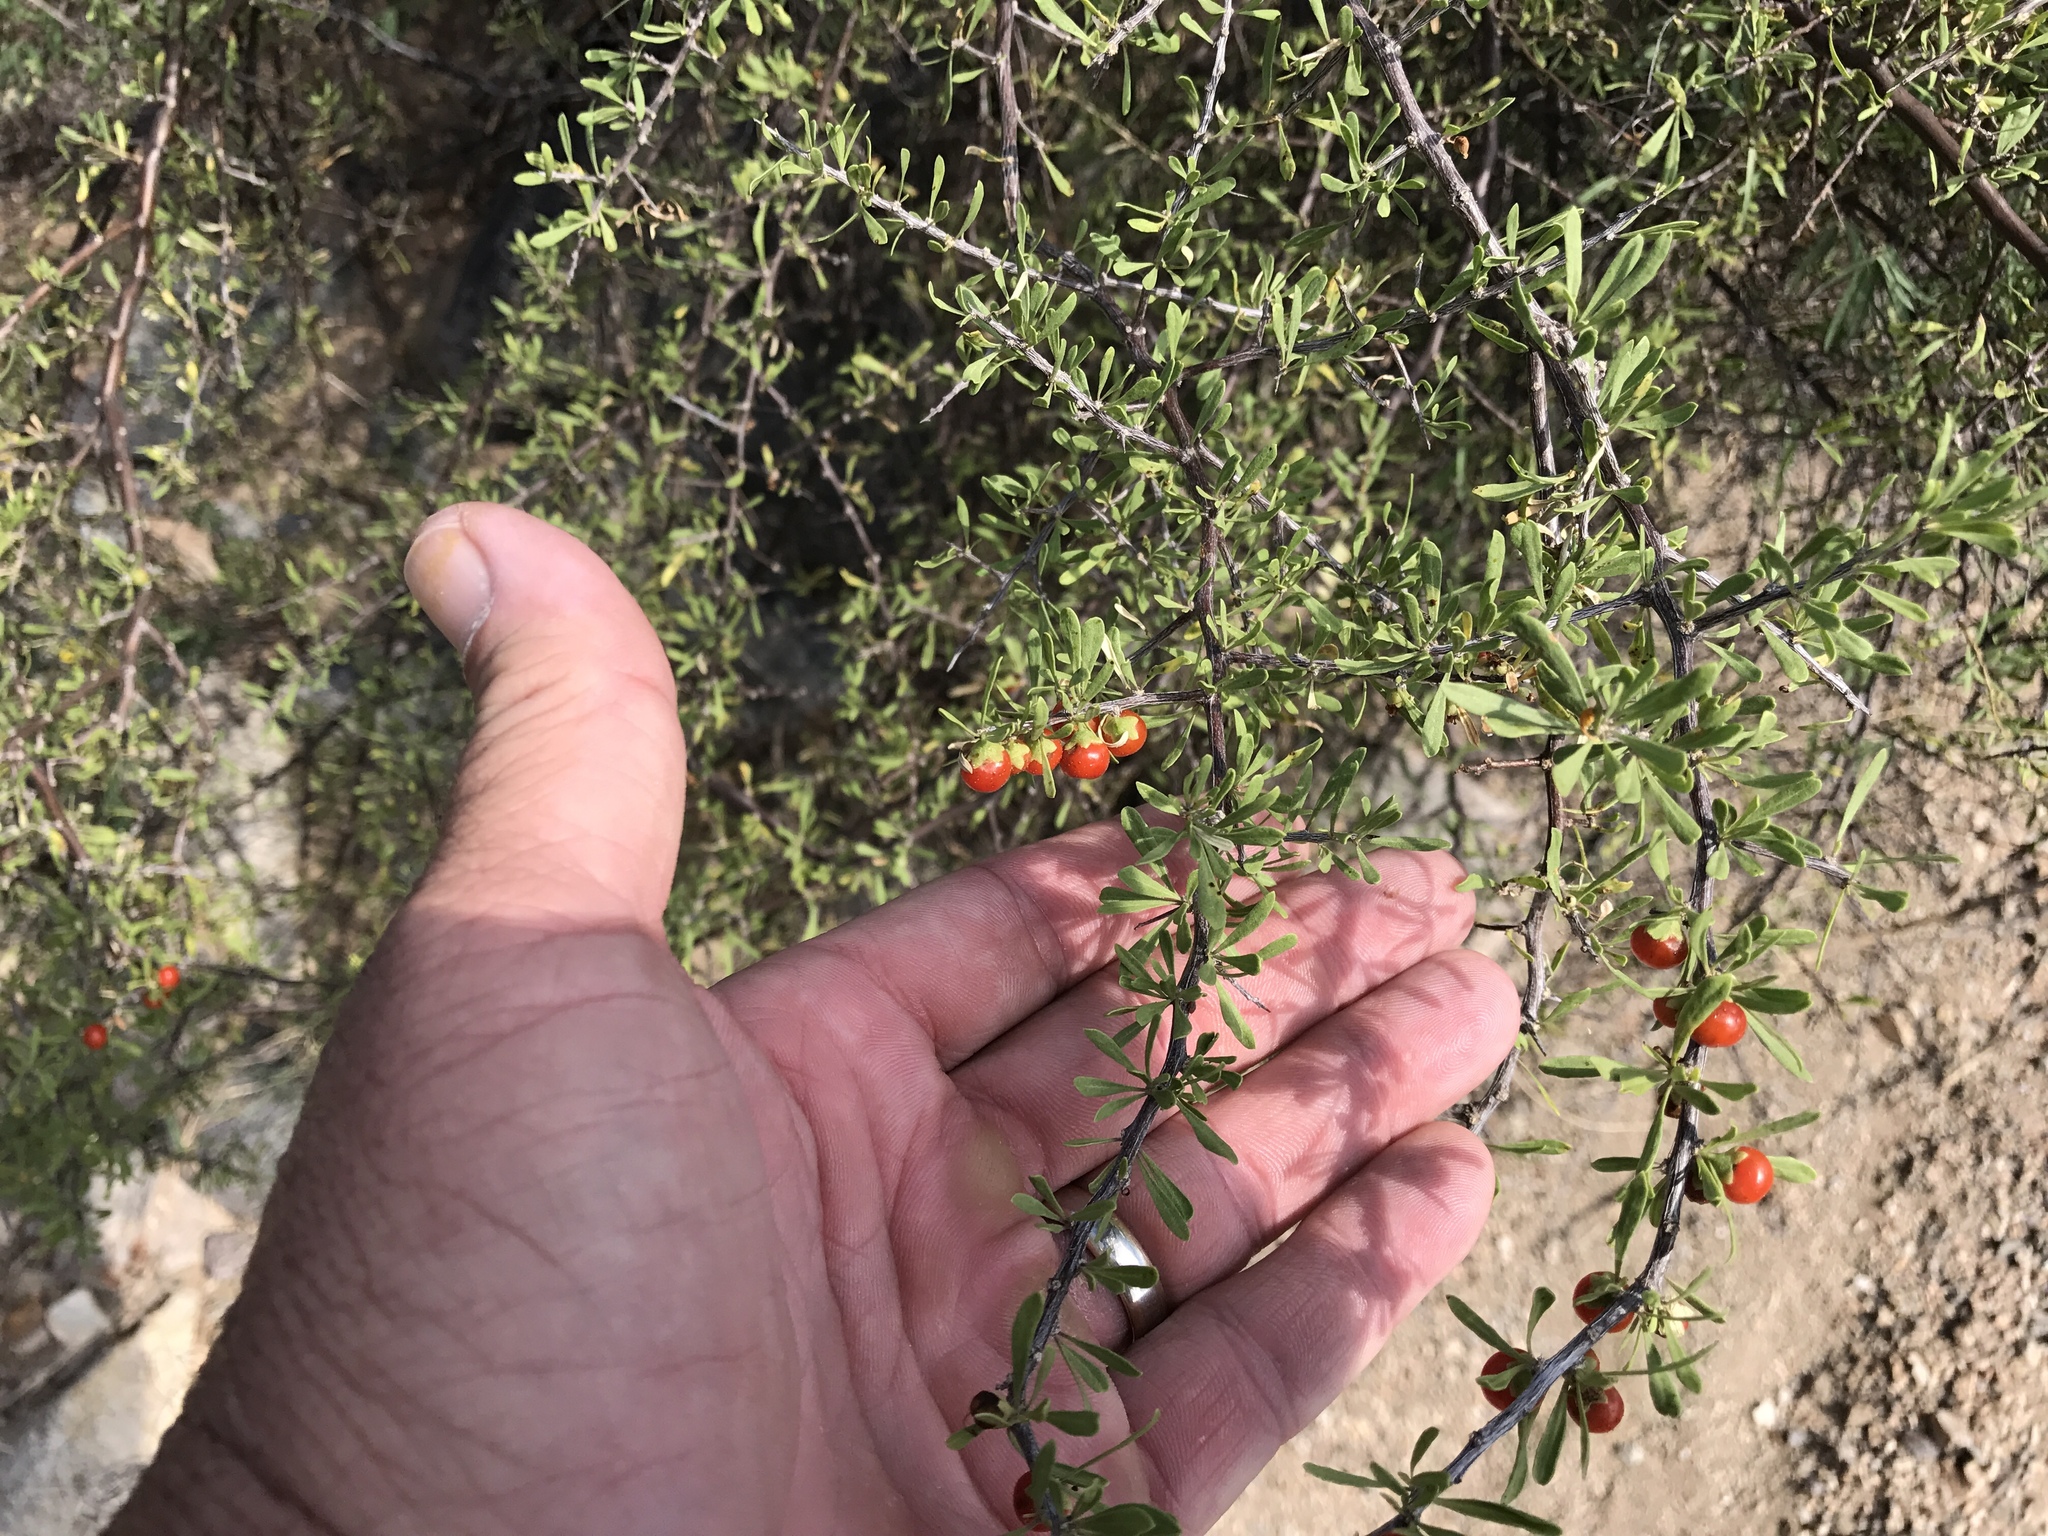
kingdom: Plantae
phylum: Tracheophyta
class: Magnoliopsida
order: Solanales
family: Solanaceae
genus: Lycium
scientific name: Lycium berlandieri
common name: Berlandier wolfberry
